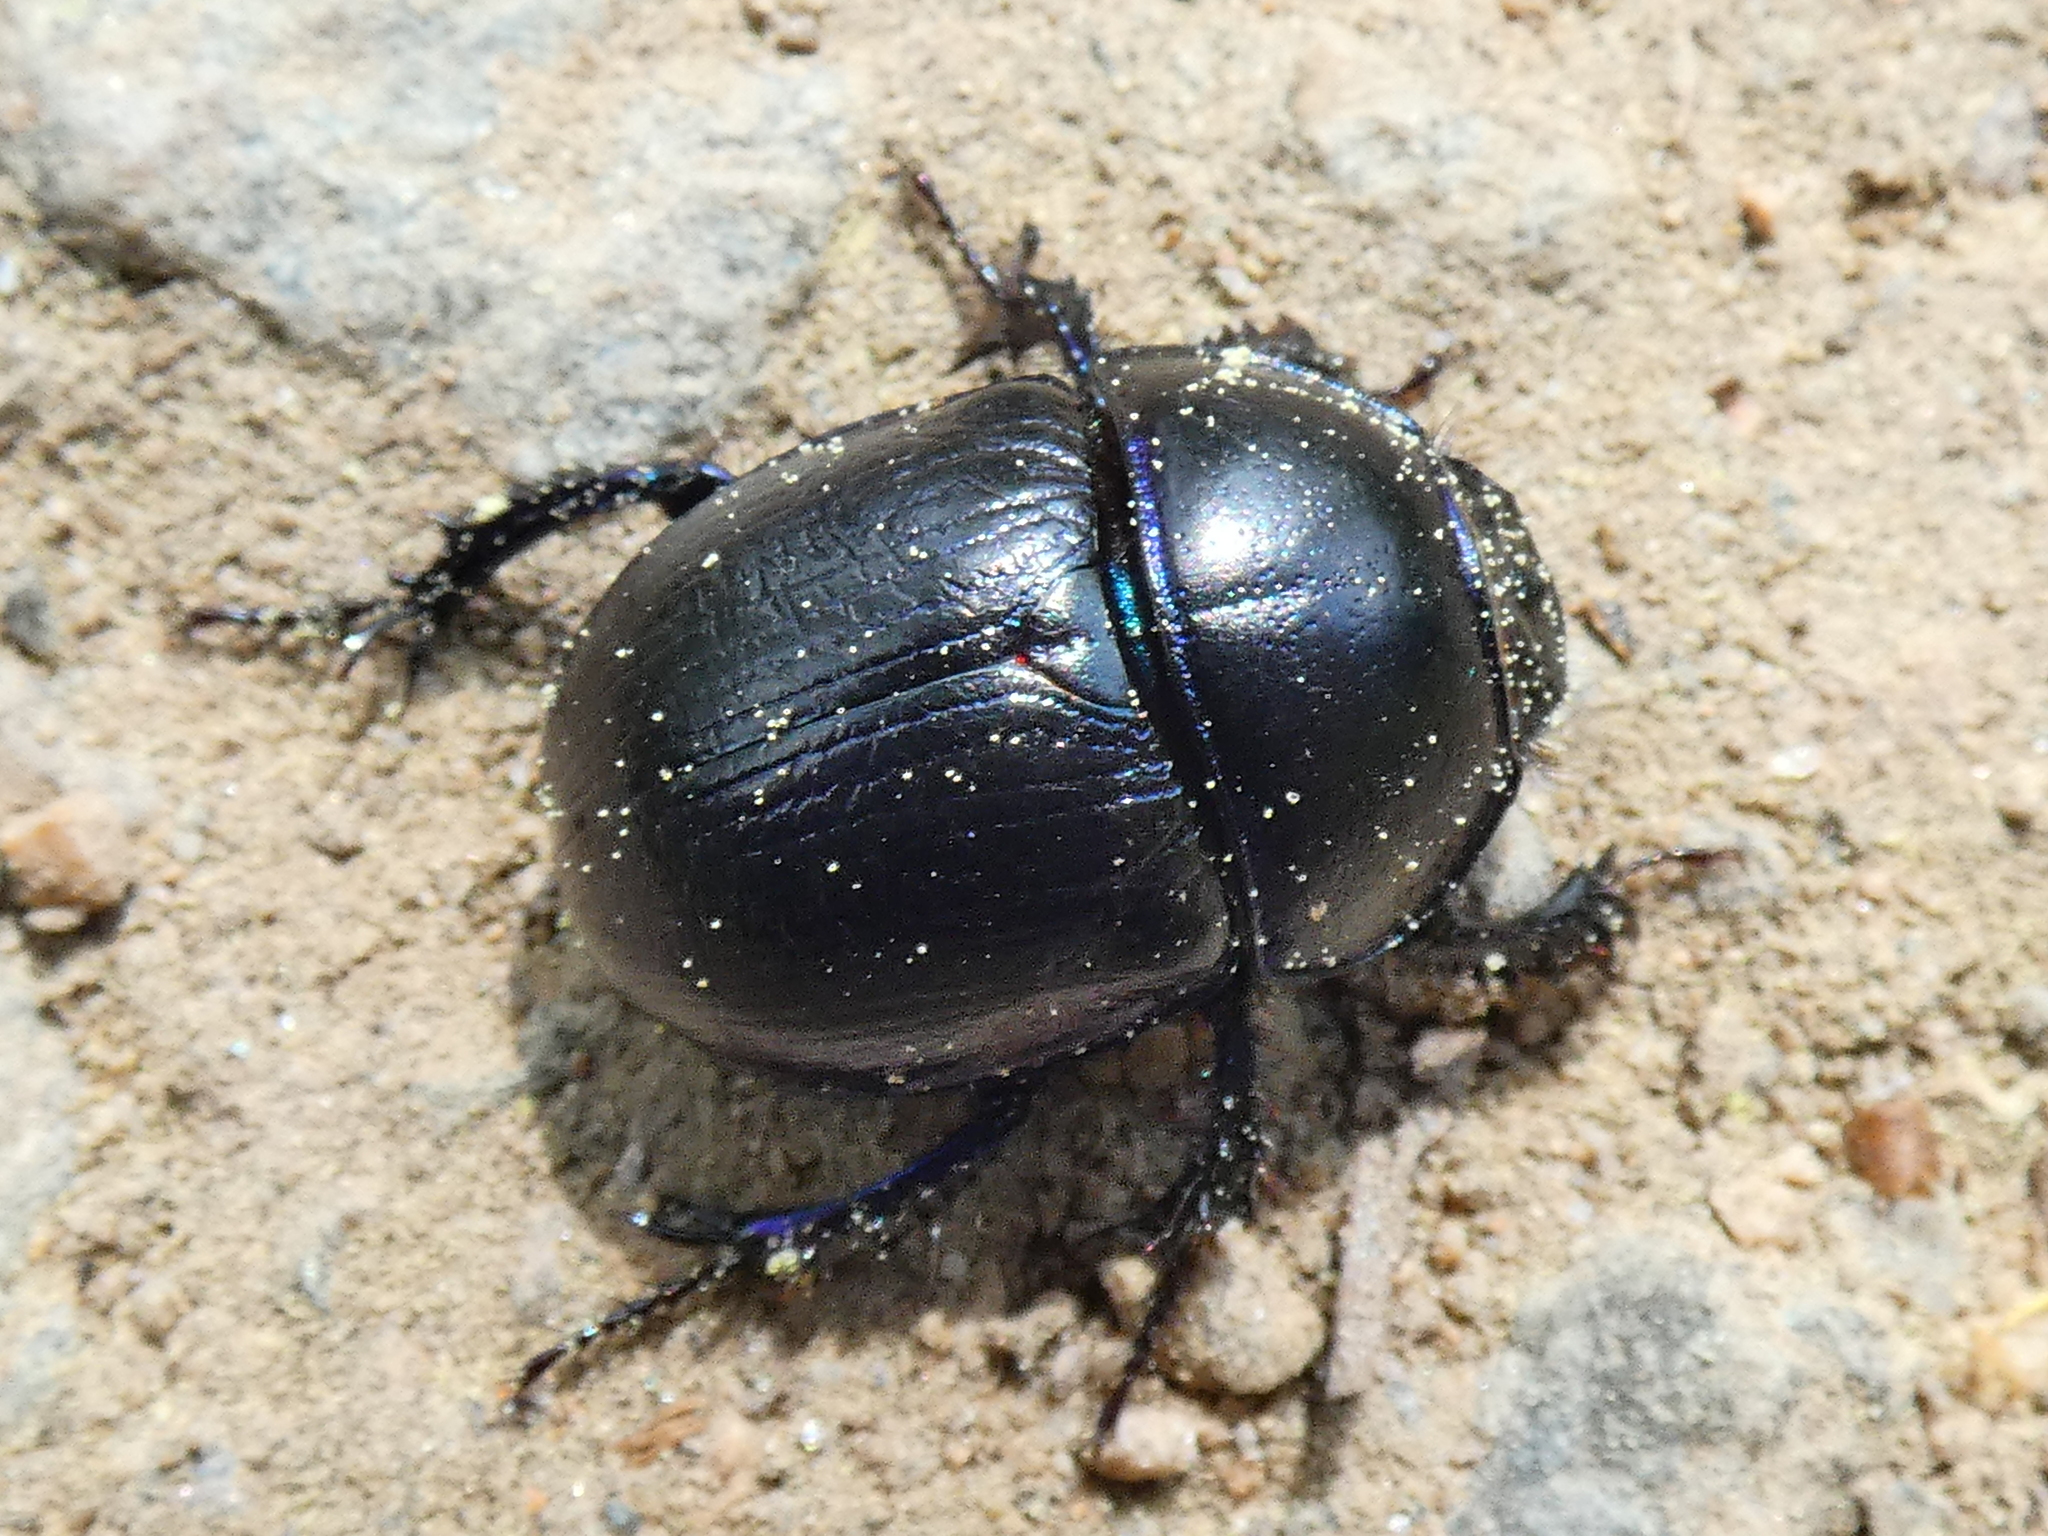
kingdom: Animalia
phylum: Arthropoda
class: Insecta
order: Coleoptera
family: Geotrupidae
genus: Anoplotrupes
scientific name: Anoplotrupes stercorosus
